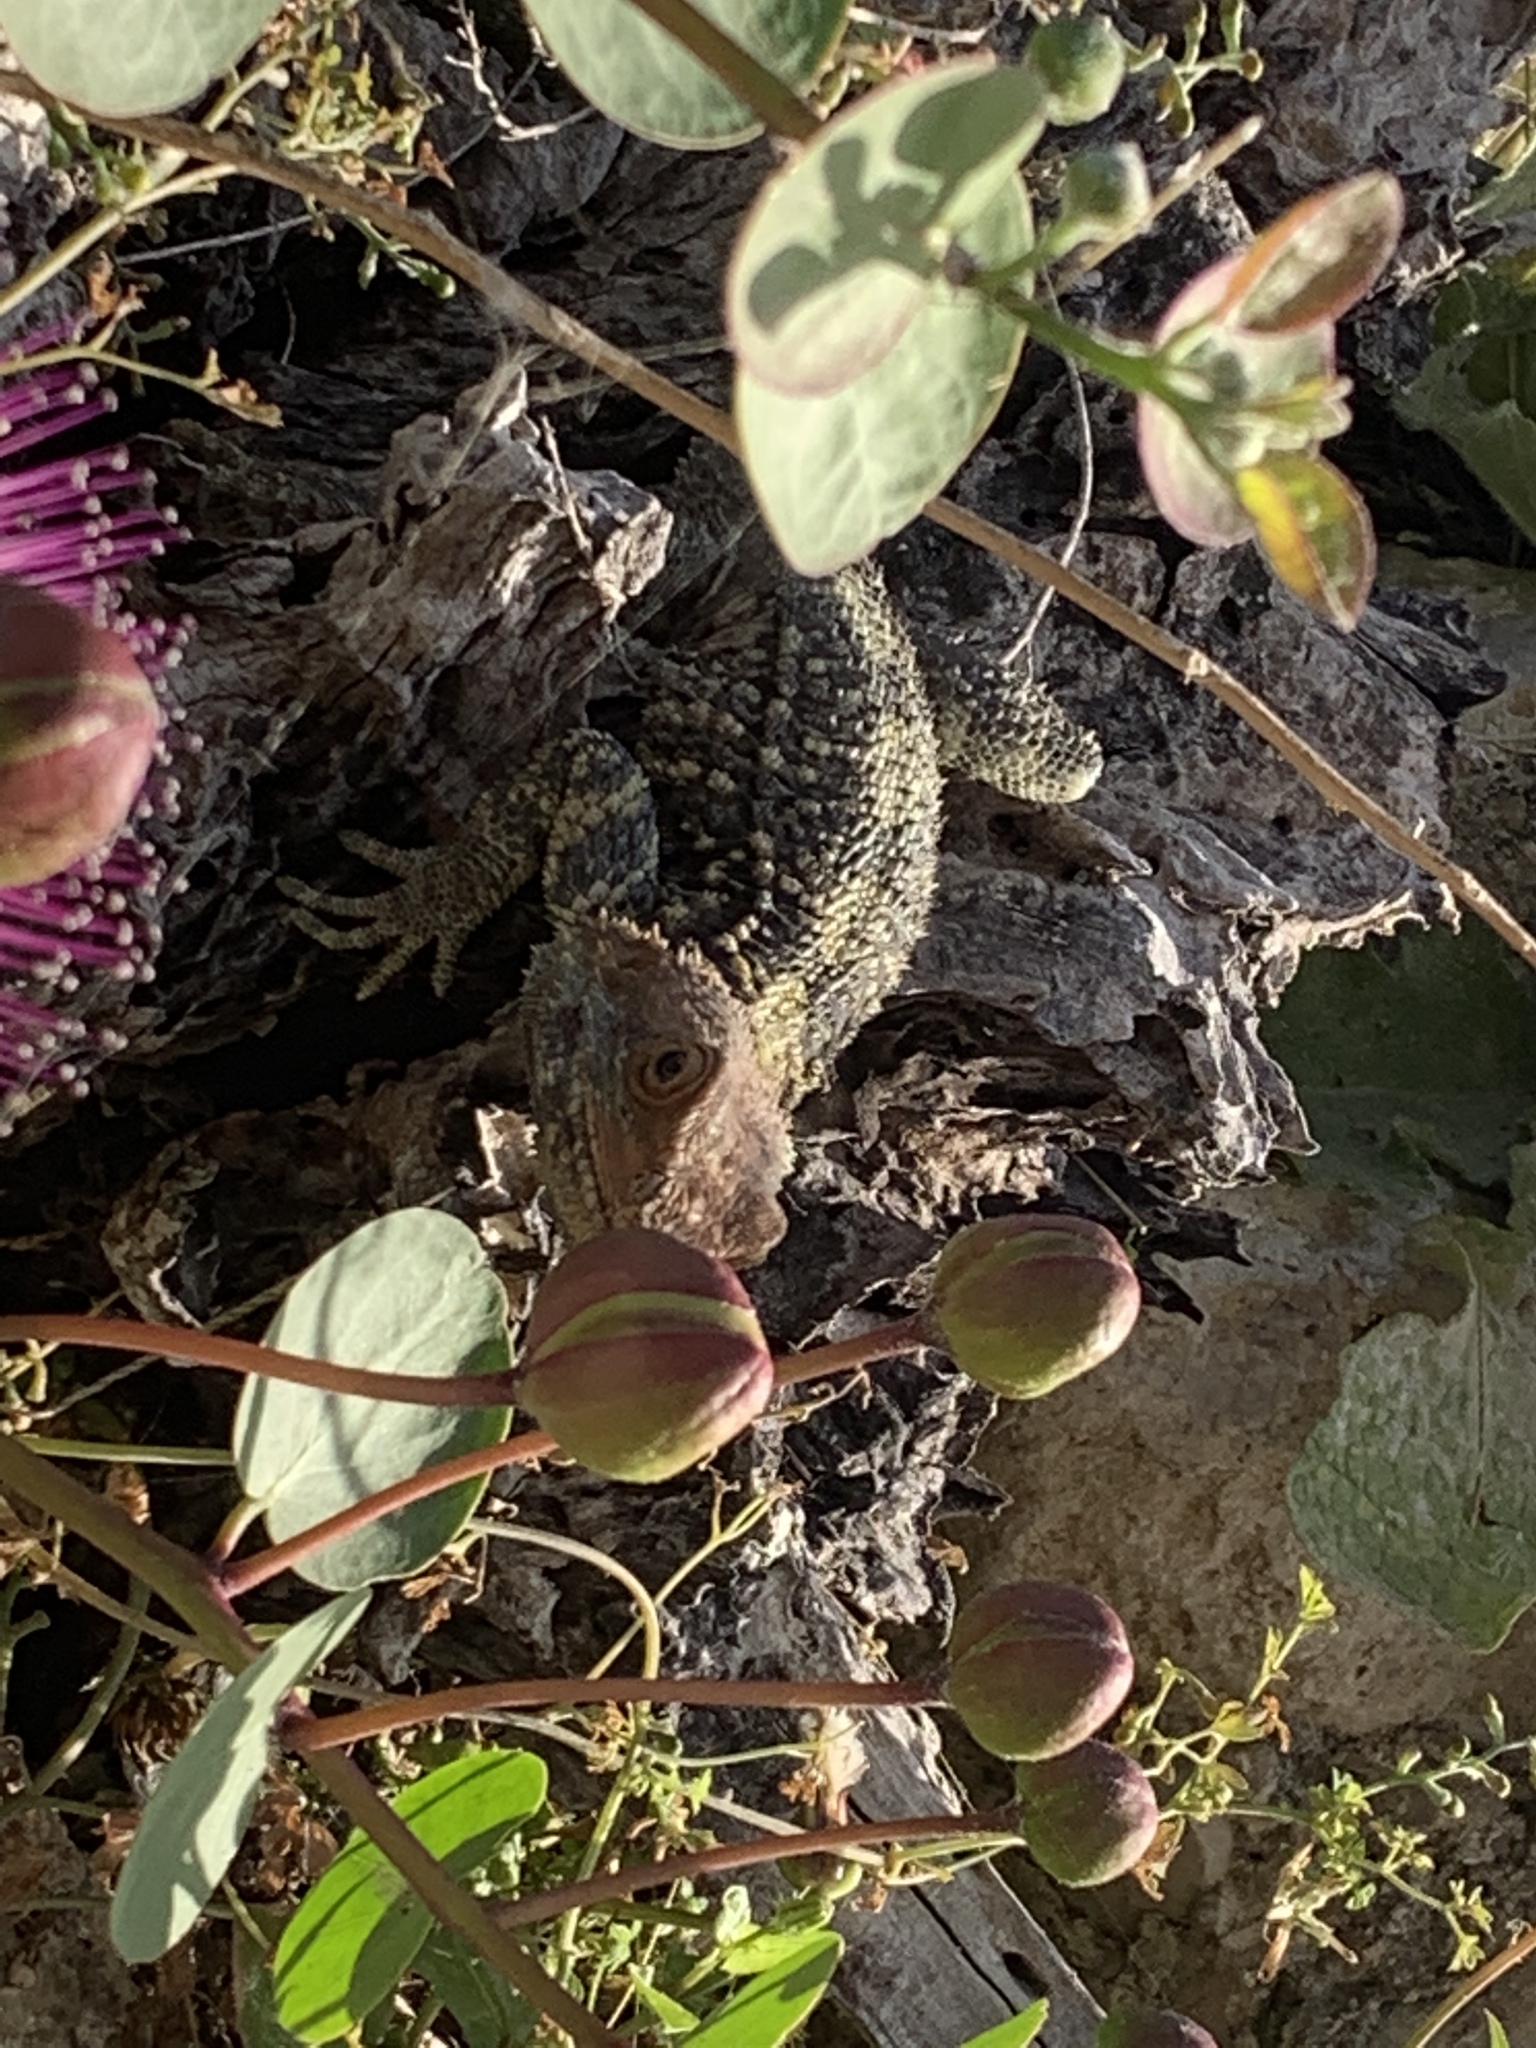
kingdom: Animalia
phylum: Chordata
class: Squamata
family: Agamidae
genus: Stellagama
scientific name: Stellagama stellio
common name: Starred agama
